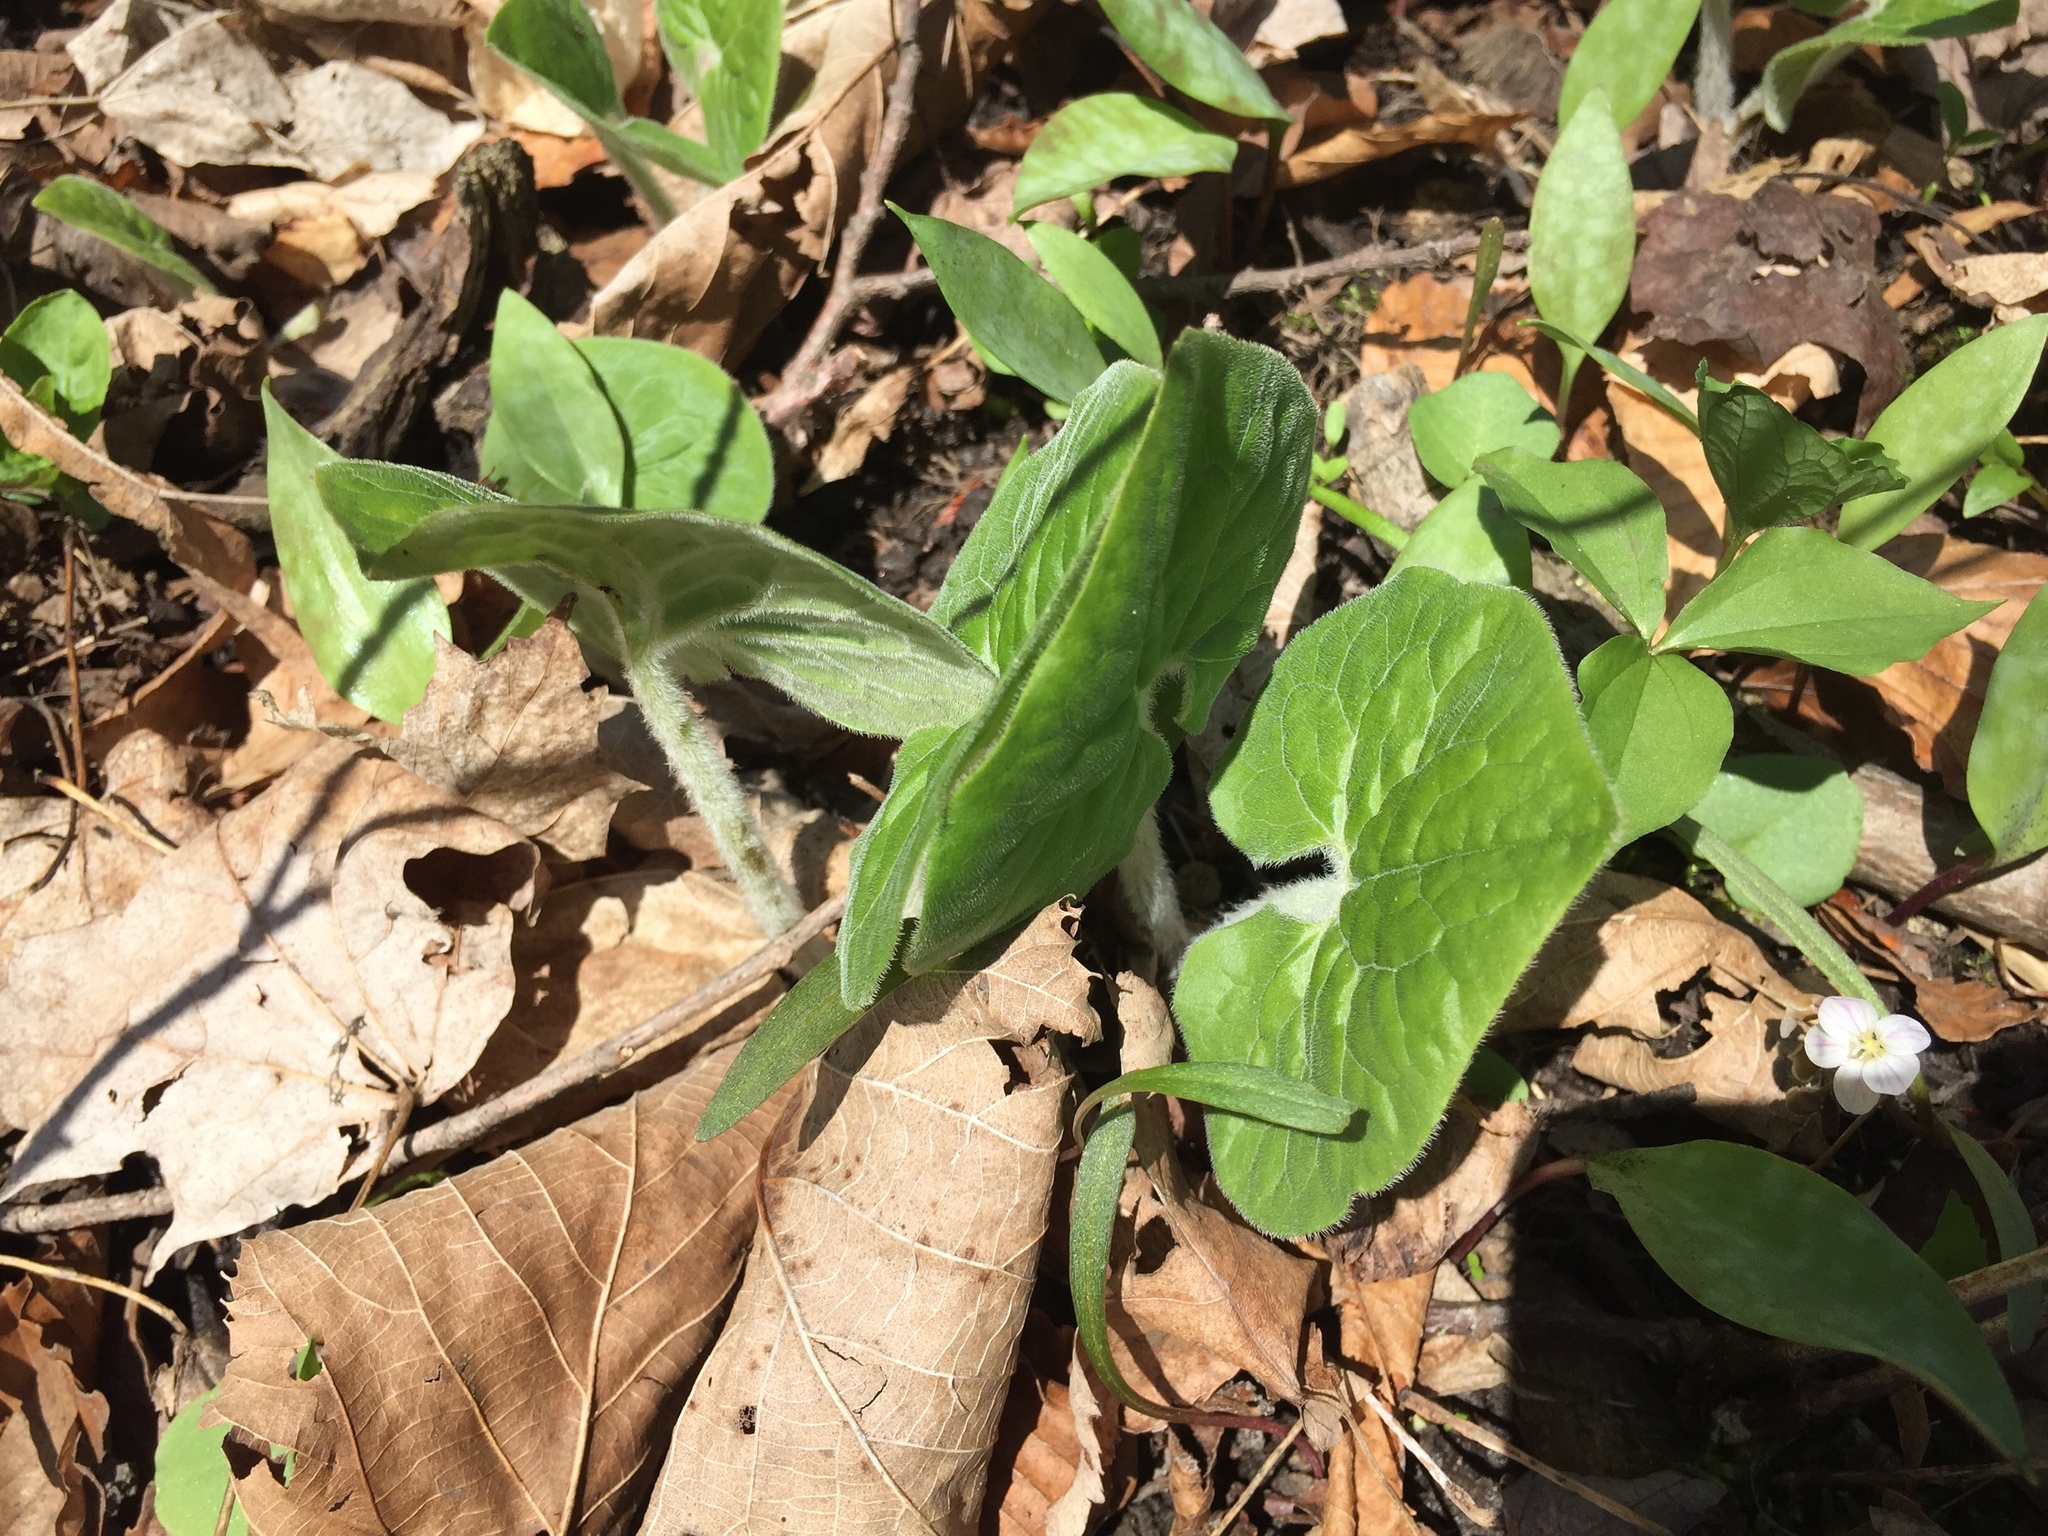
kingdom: Plantae
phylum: Tracheophyta
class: Magnoliopsida
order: Piperales
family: Aristolochiaceae
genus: Asarum
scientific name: Asarum canadense
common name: Wild ginger
